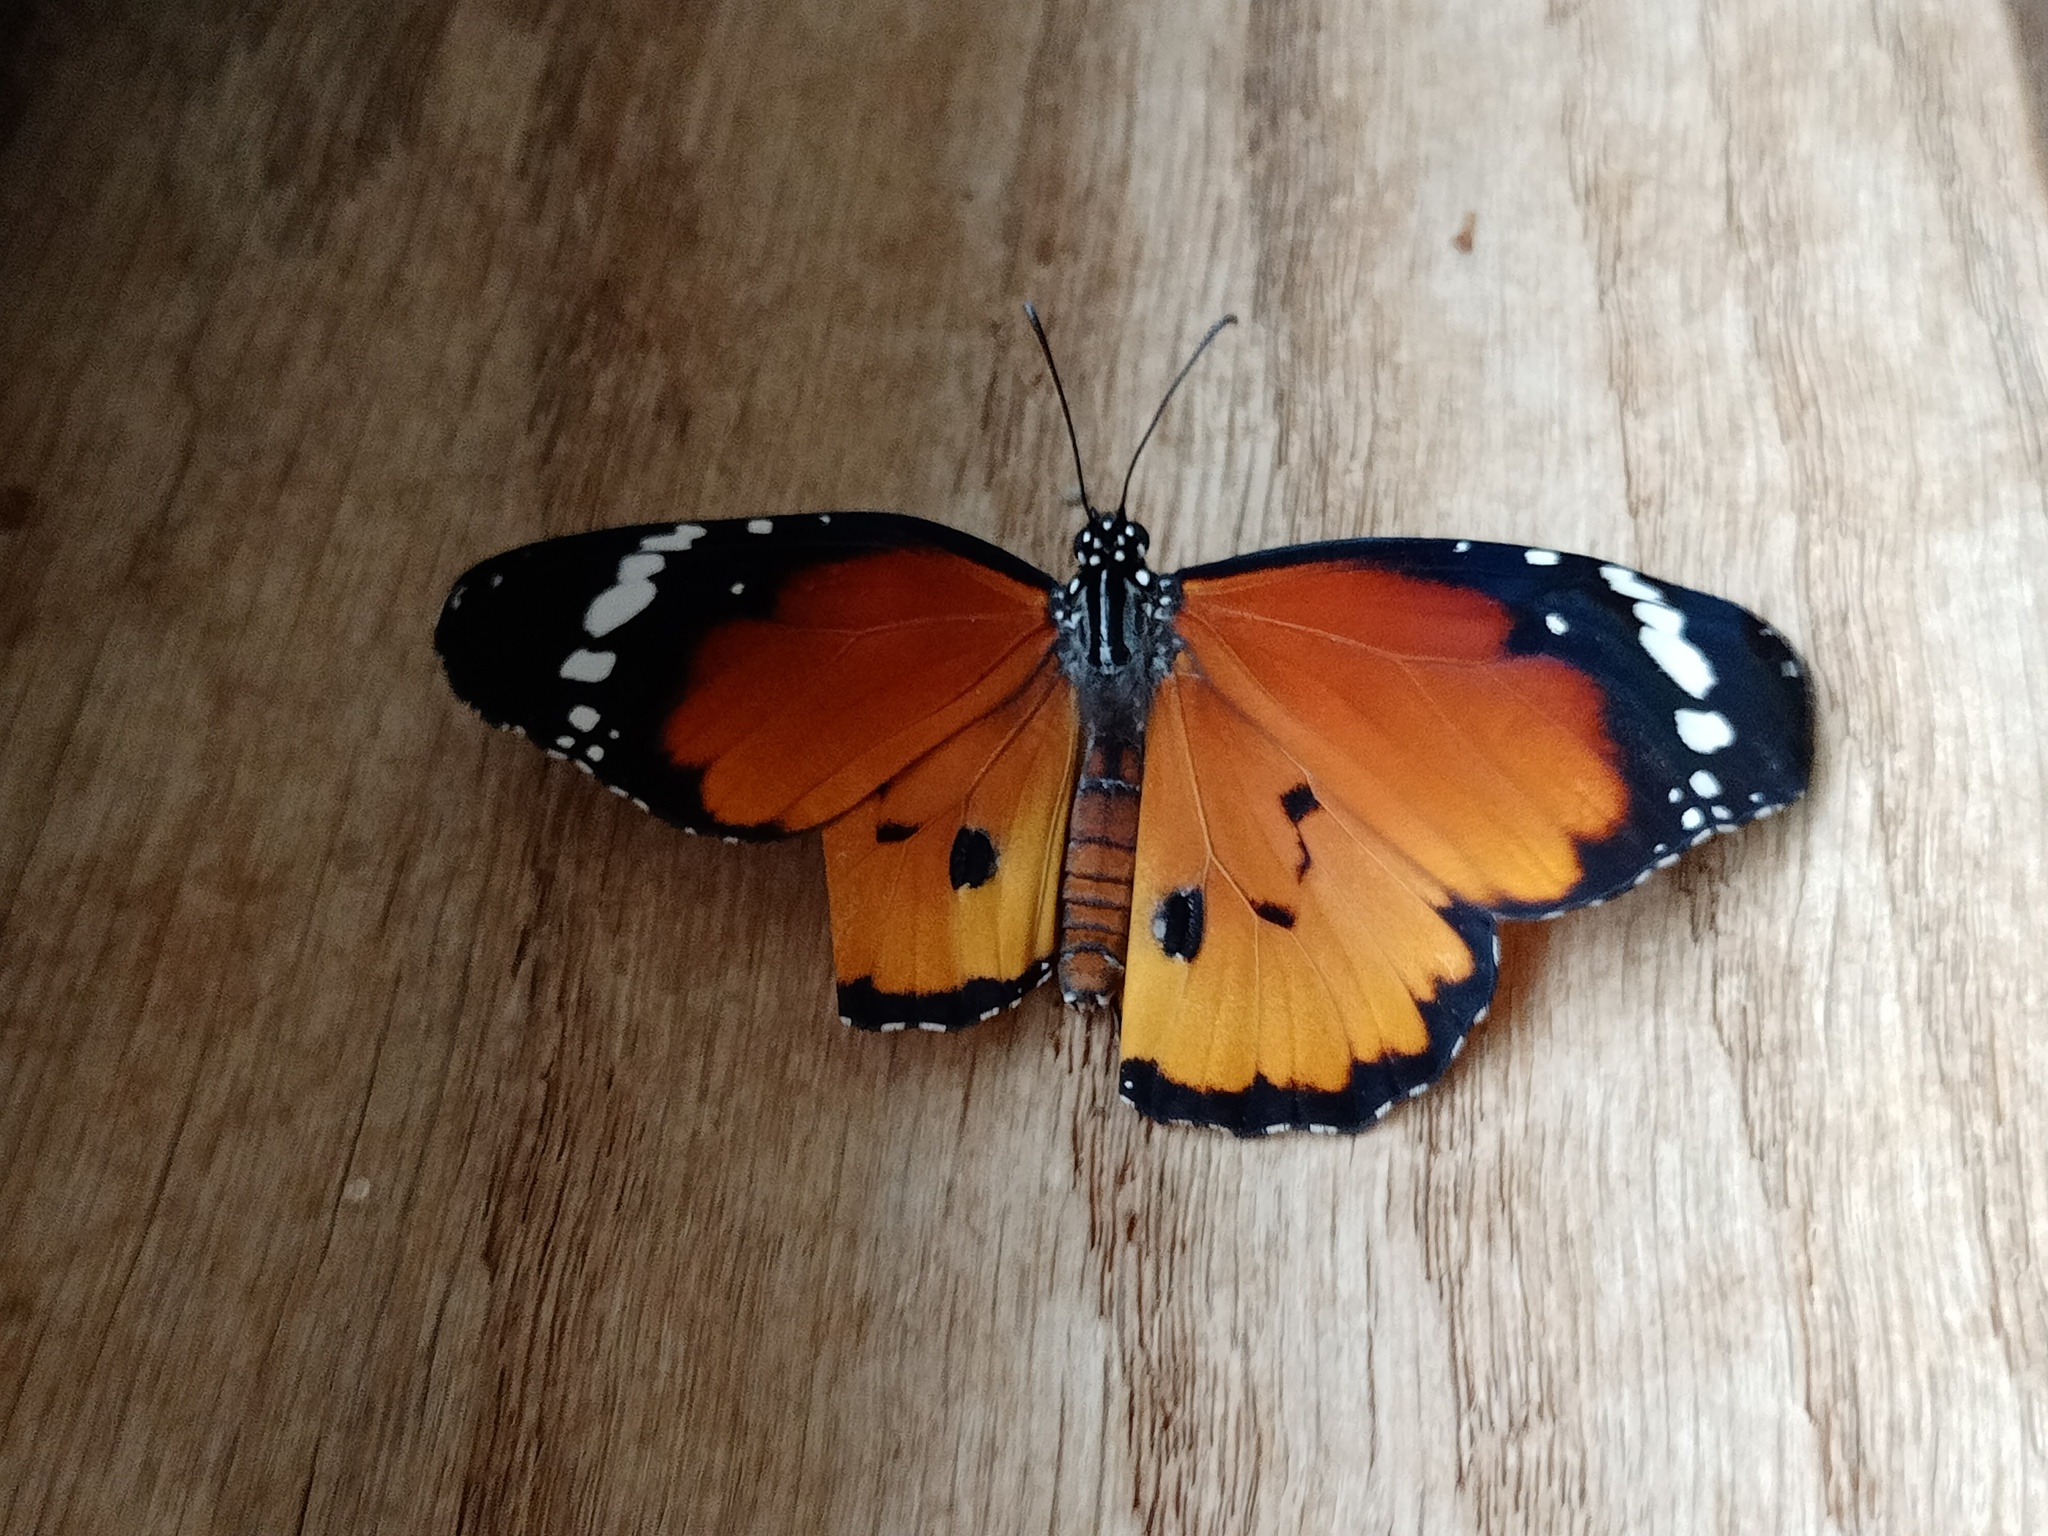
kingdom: Animalia
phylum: Arthropoda
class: Insecta
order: Lepidoptera
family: Nymphalidae
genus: Danaus
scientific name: Danaus chrysippus
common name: Plain tiger
